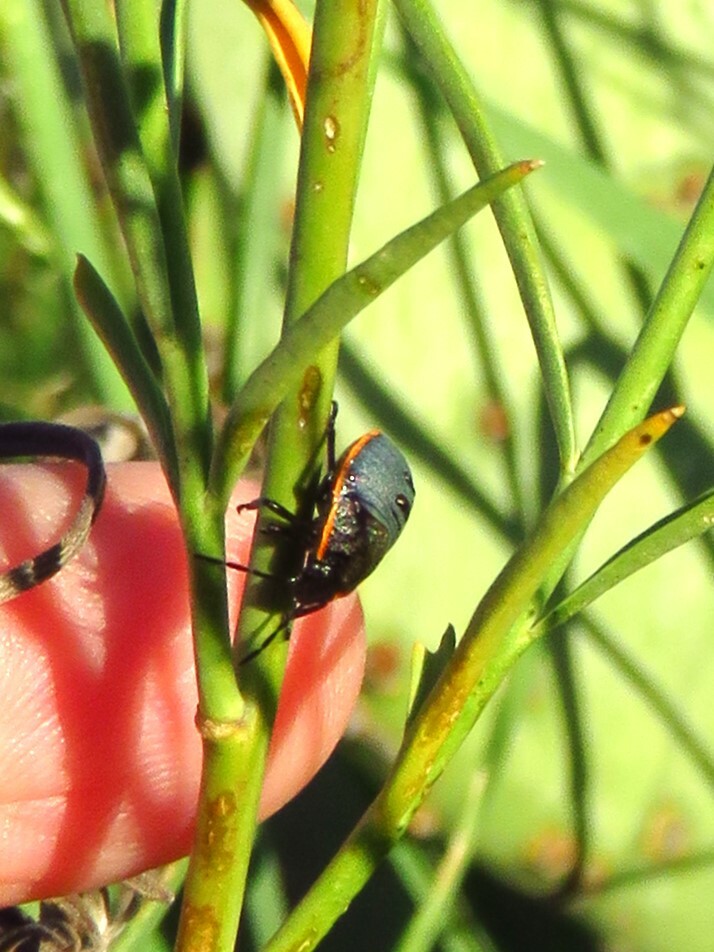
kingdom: Animalia
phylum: Arthropoda
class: Insecta
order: Hemiptera
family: Pentatomidae
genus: Chlorochroa
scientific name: Chlorochroa ligata
